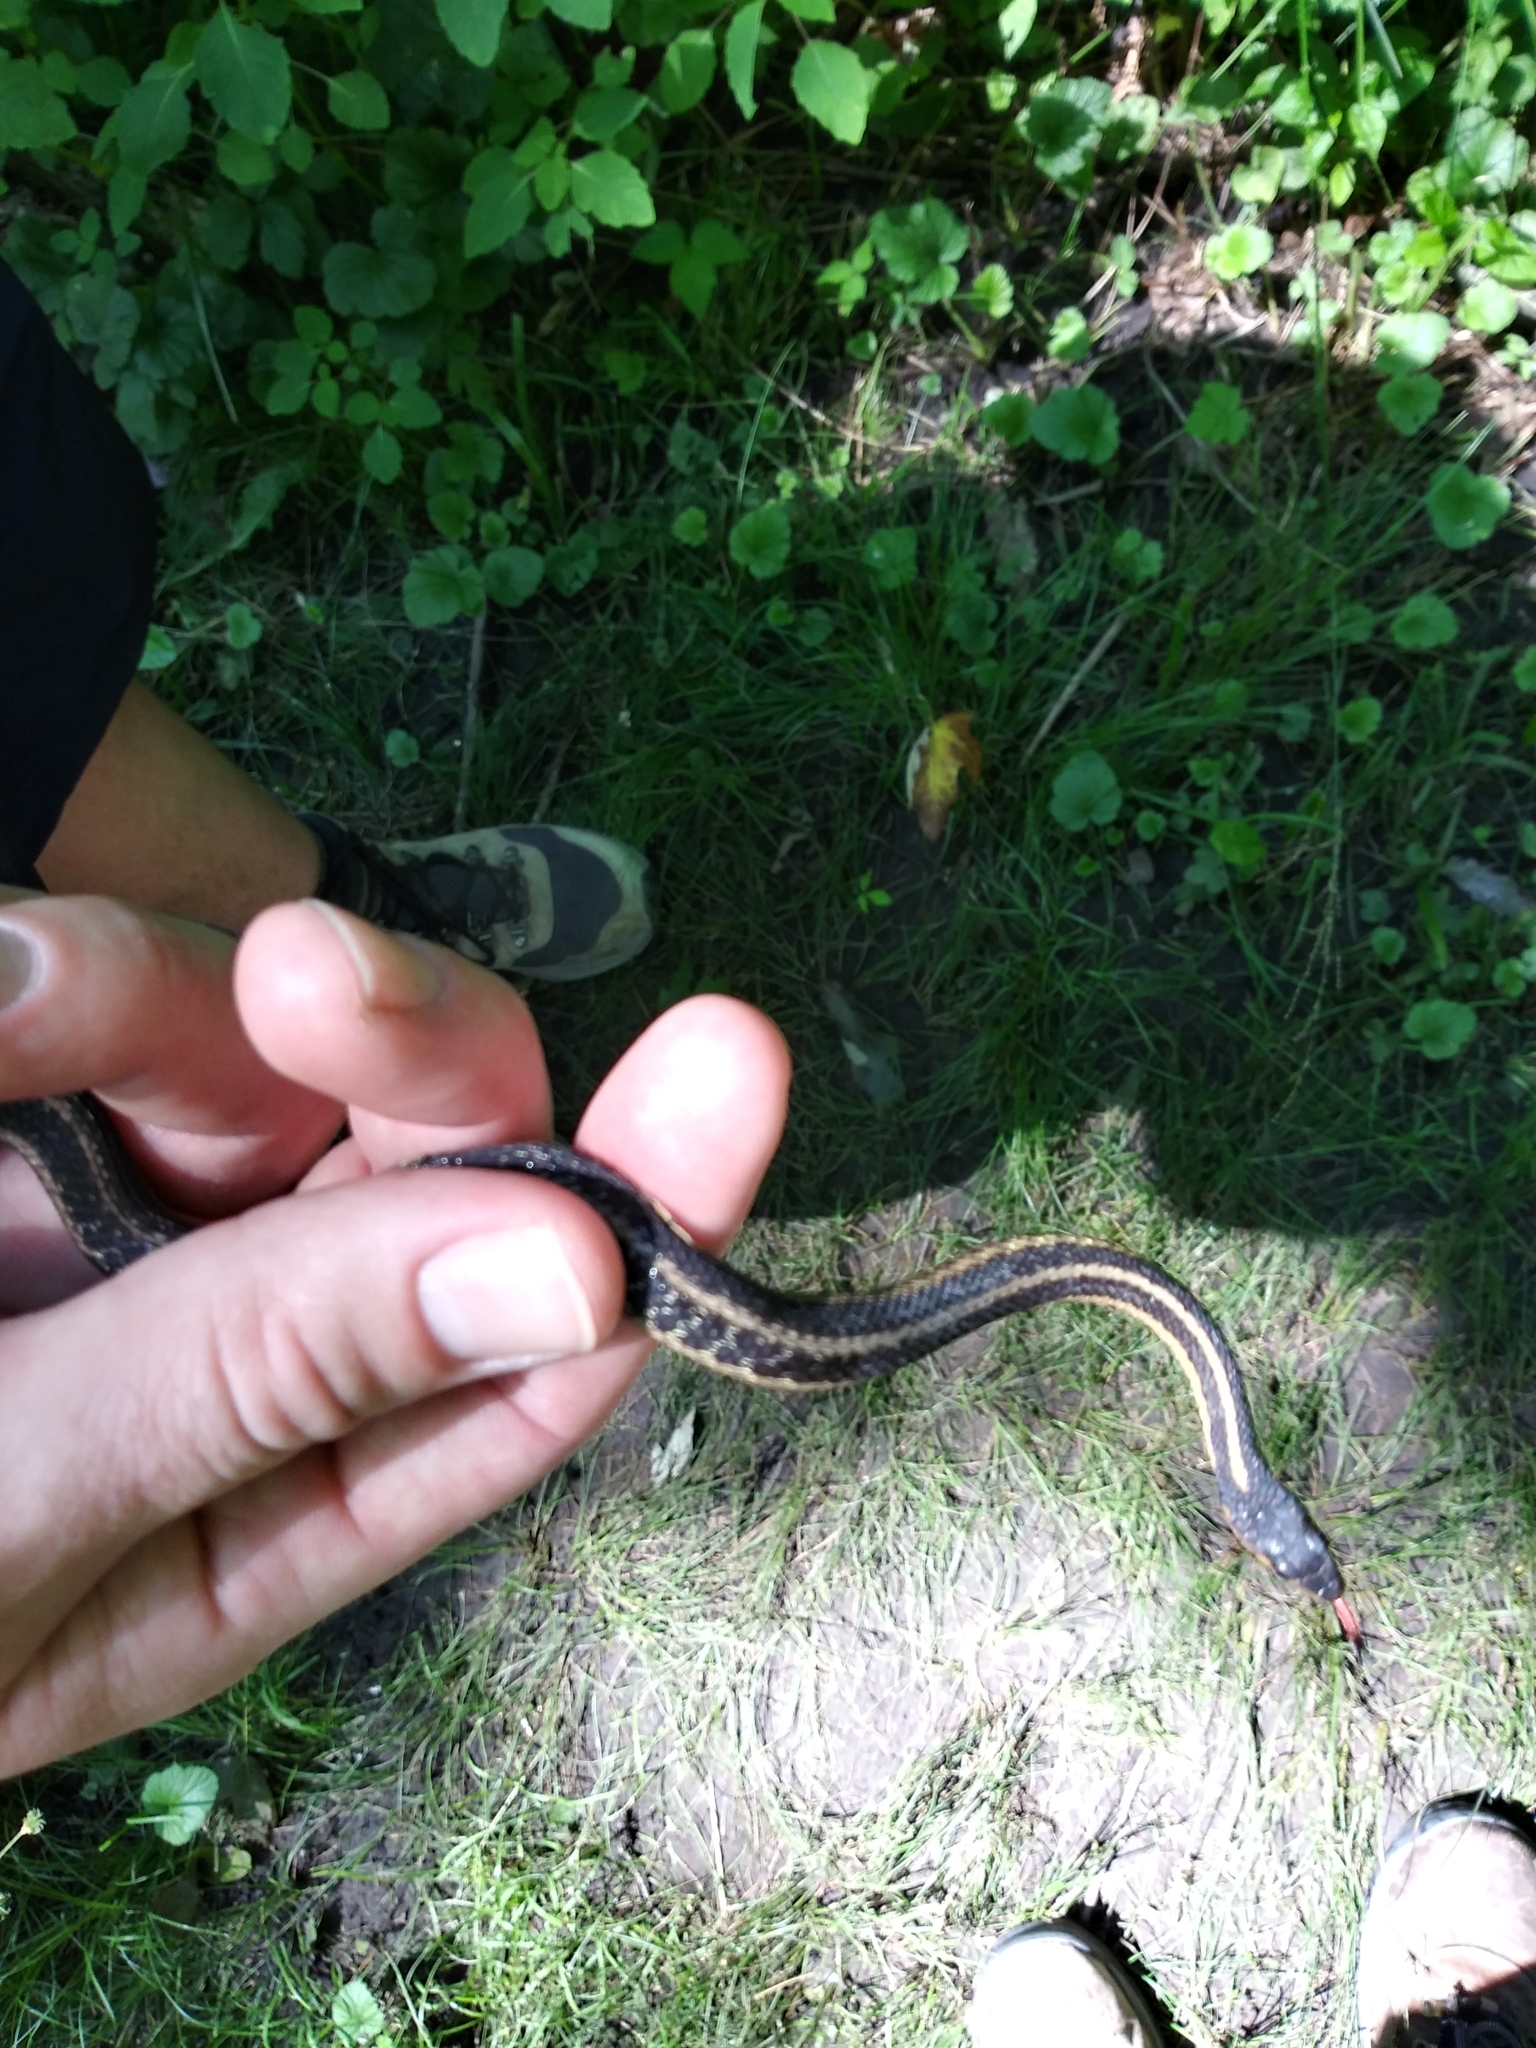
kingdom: Animalia
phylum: Chordata
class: Squamata
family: Colubridae
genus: Thamnophis
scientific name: Thamnophis sirtalis
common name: Common garter snake
